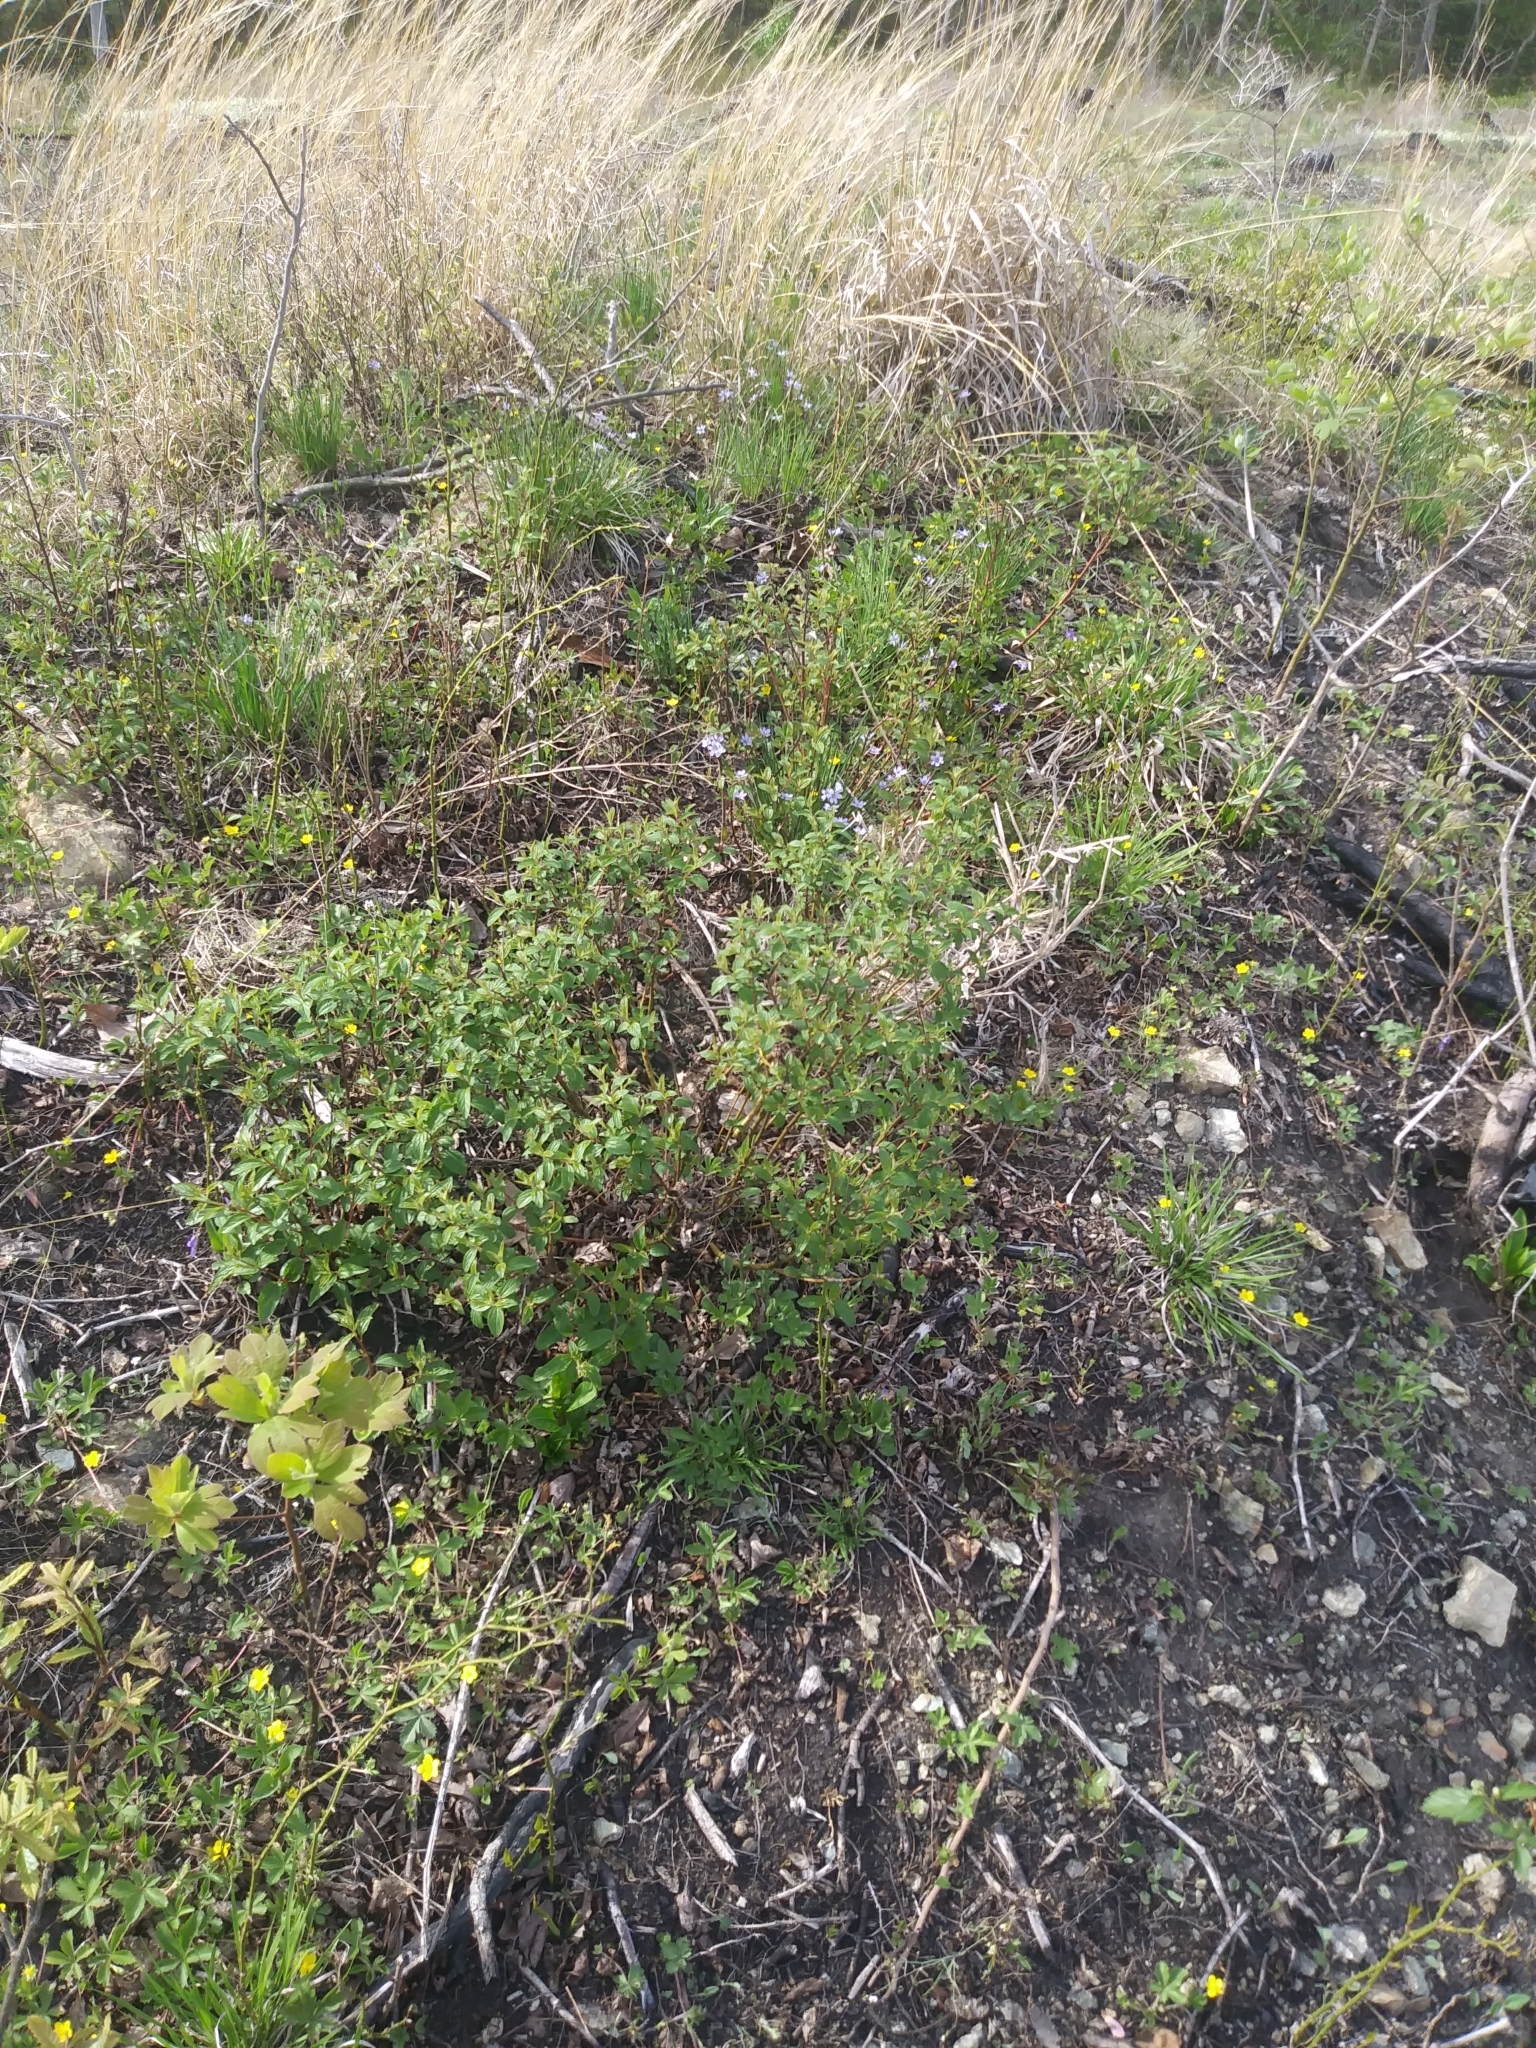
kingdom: Plantae
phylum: Tracheophyta
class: Magnoliopsida
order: Rosales
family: Rhamnaceae
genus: Ceanothus
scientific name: Ceanothus americanus
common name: Redroot
